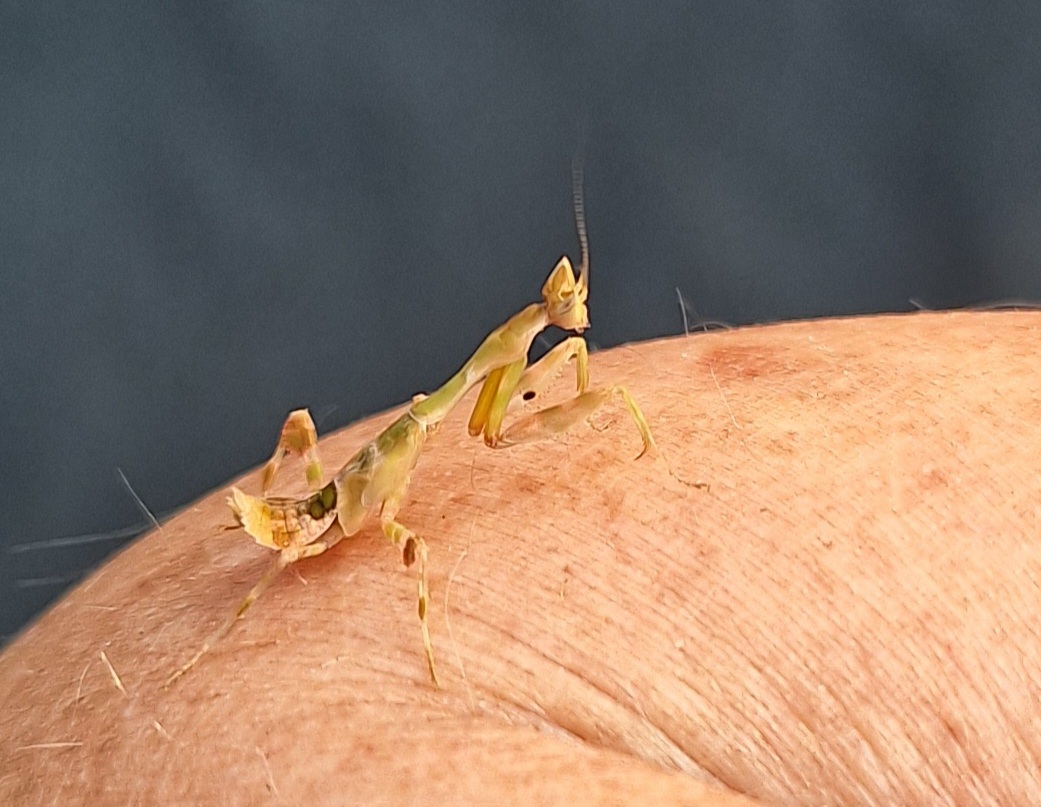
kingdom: Animalia
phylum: Arthropoda
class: Insecta
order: Mantodea
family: Galinthiadidae
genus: Galinthias
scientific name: Galinthias amoena
